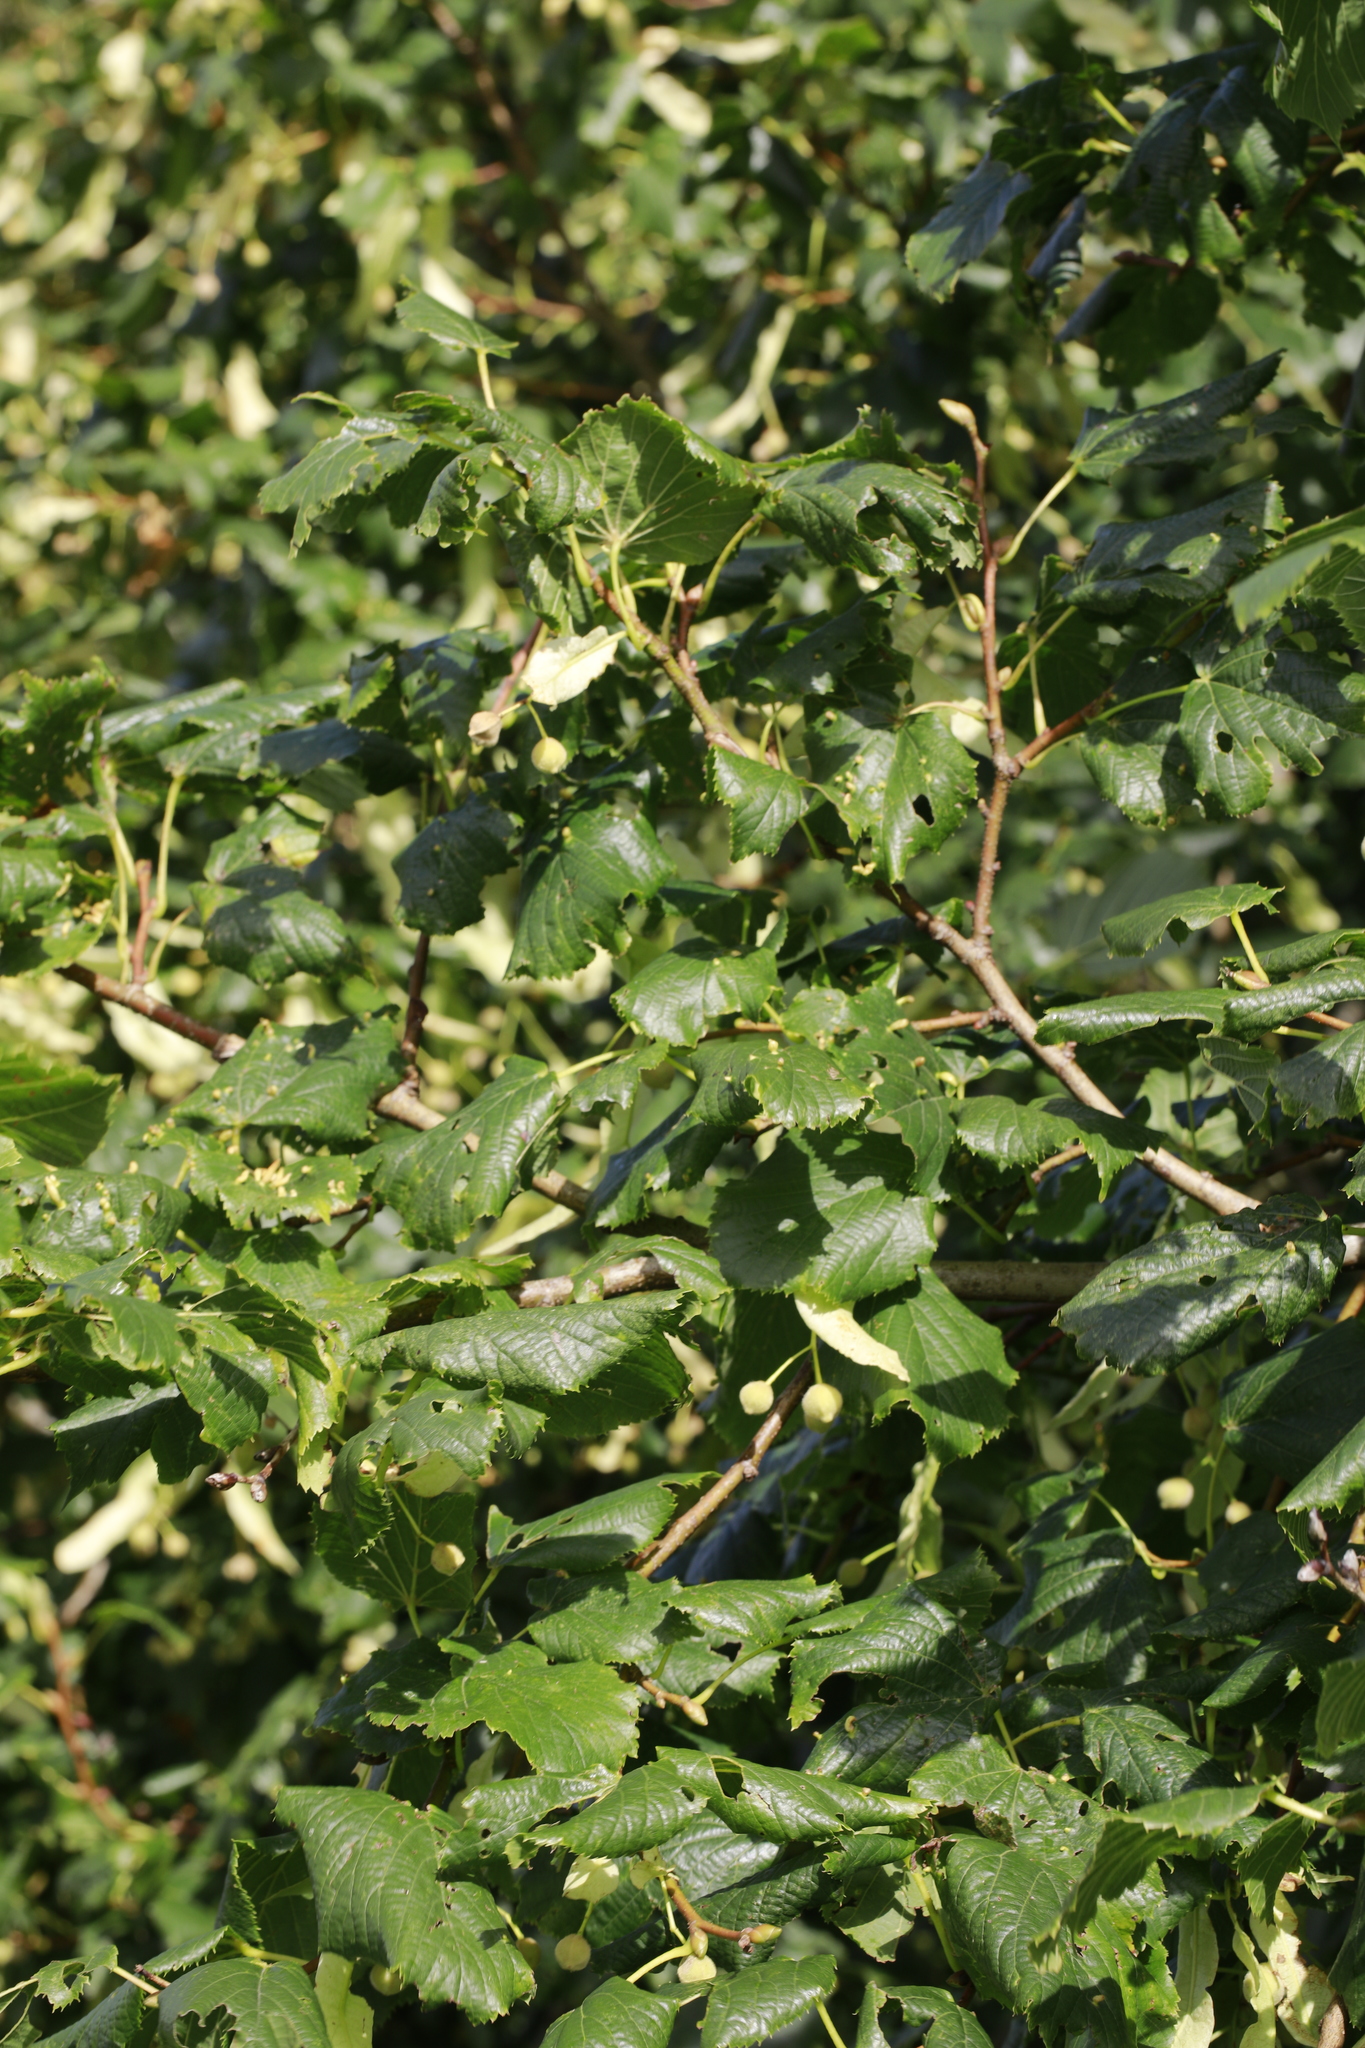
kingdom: Plantae
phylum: Tracheophyta
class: Magnoliopsida
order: Malvales
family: Malvaceae
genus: Tilia
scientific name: Tilia europaea
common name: European linden
